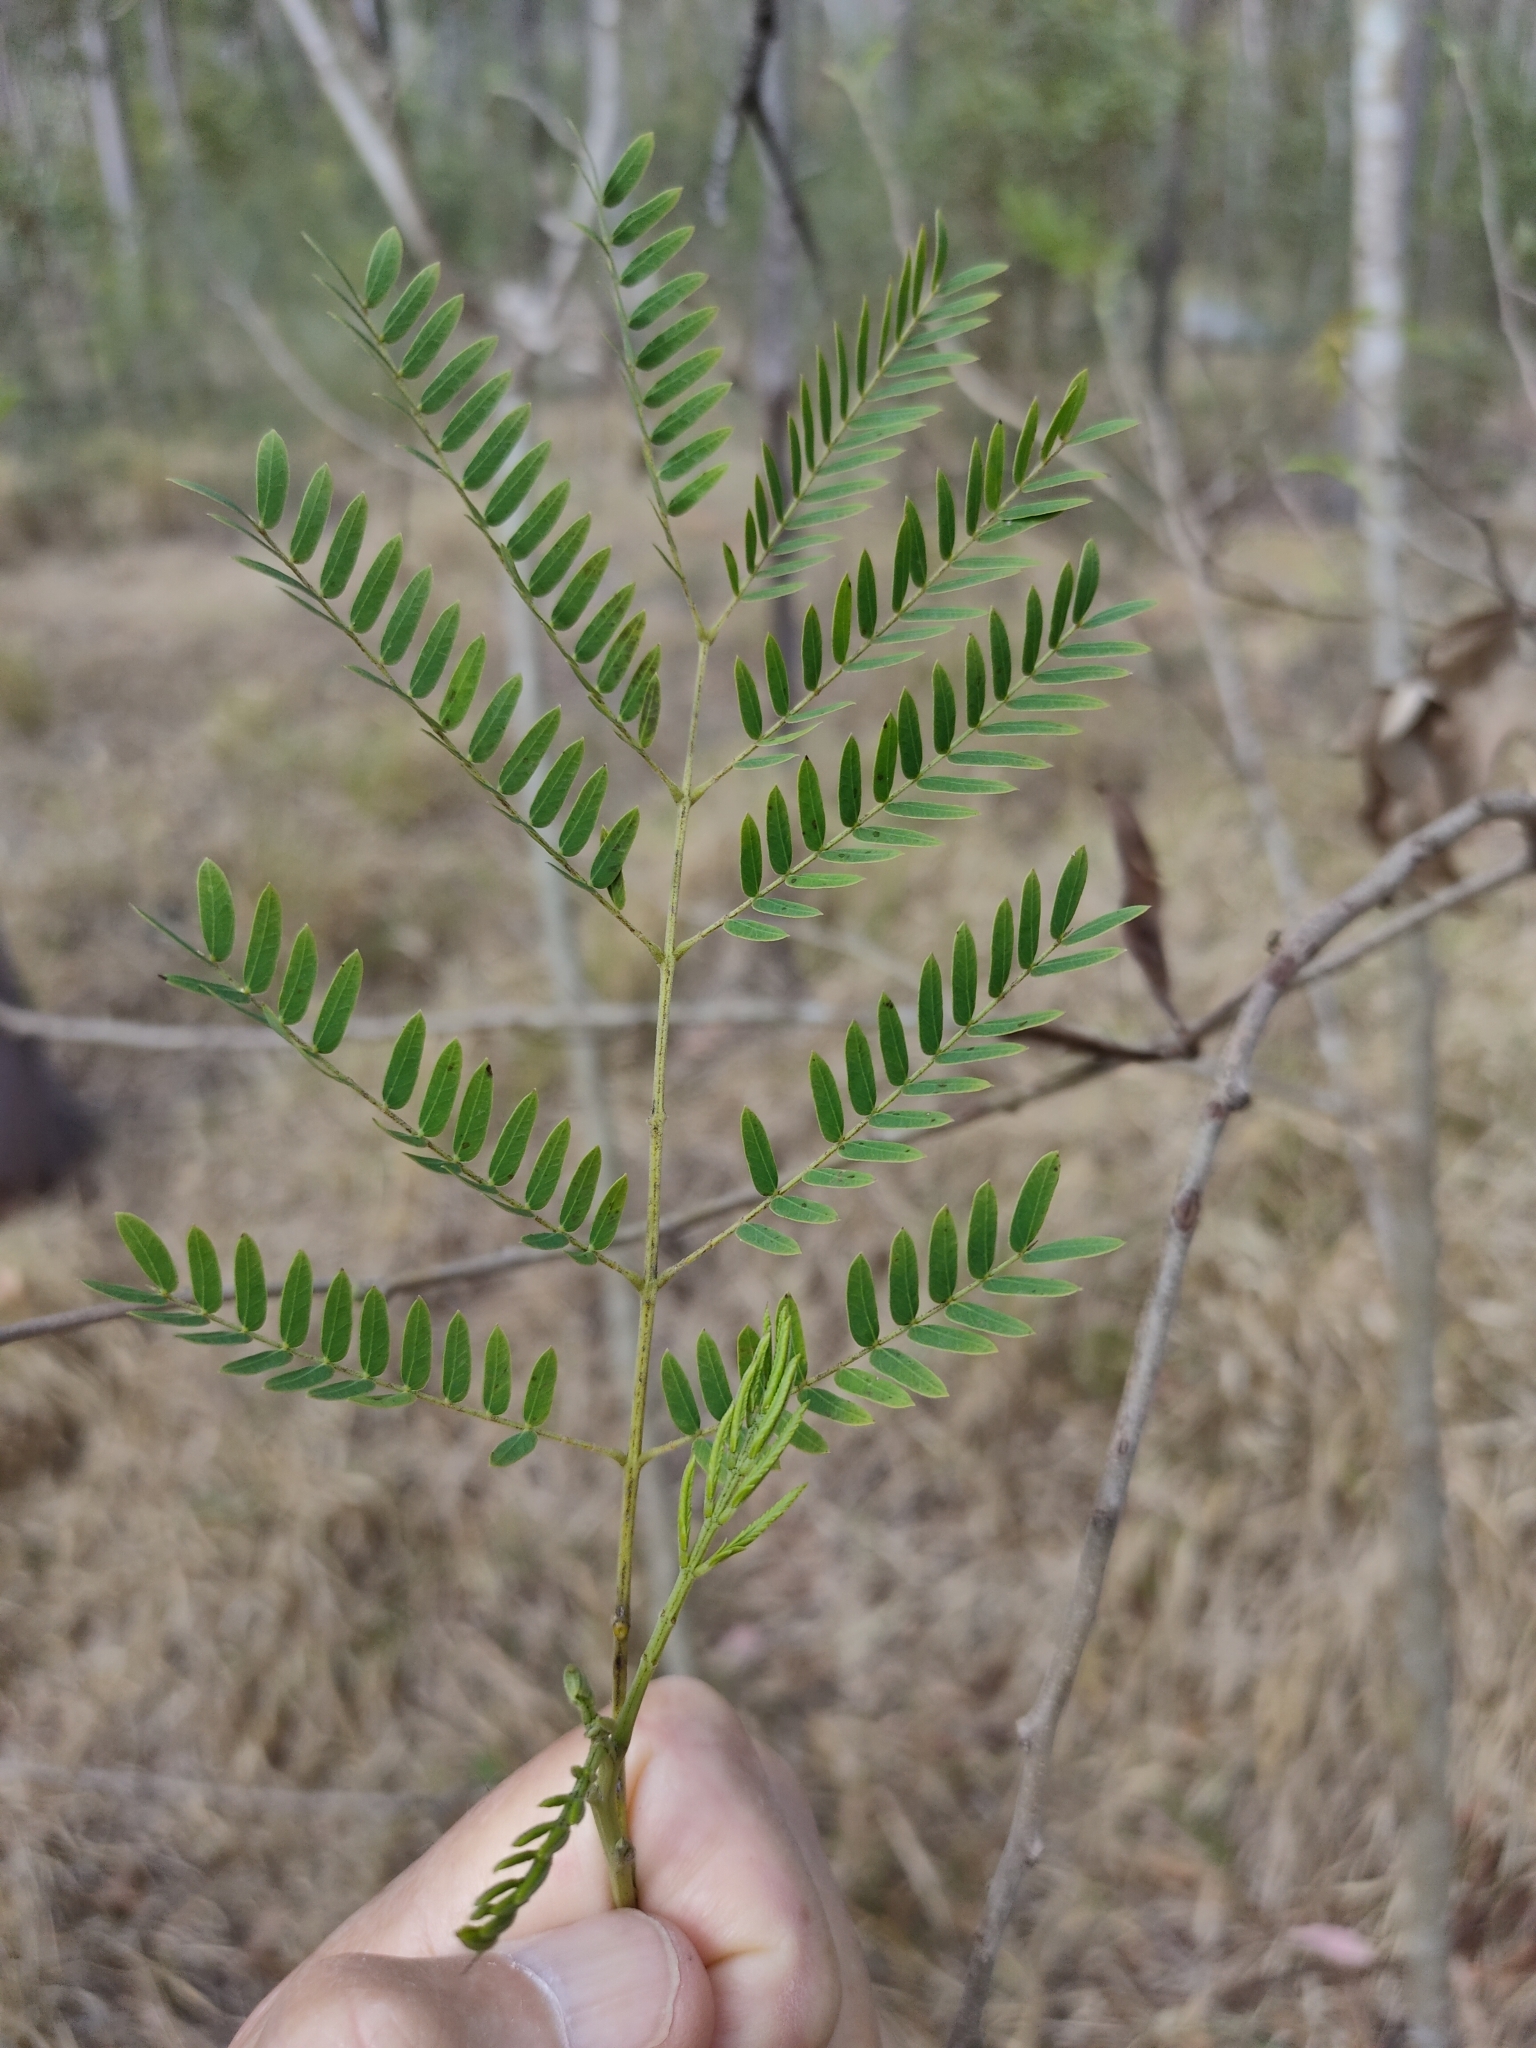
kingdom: Plantae
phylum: Tracheophyta
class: Magnoliopsida
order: Fabales
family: Fabaceae
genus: Leucaena
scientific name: Leucaena leucocephala
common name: White leadtree
